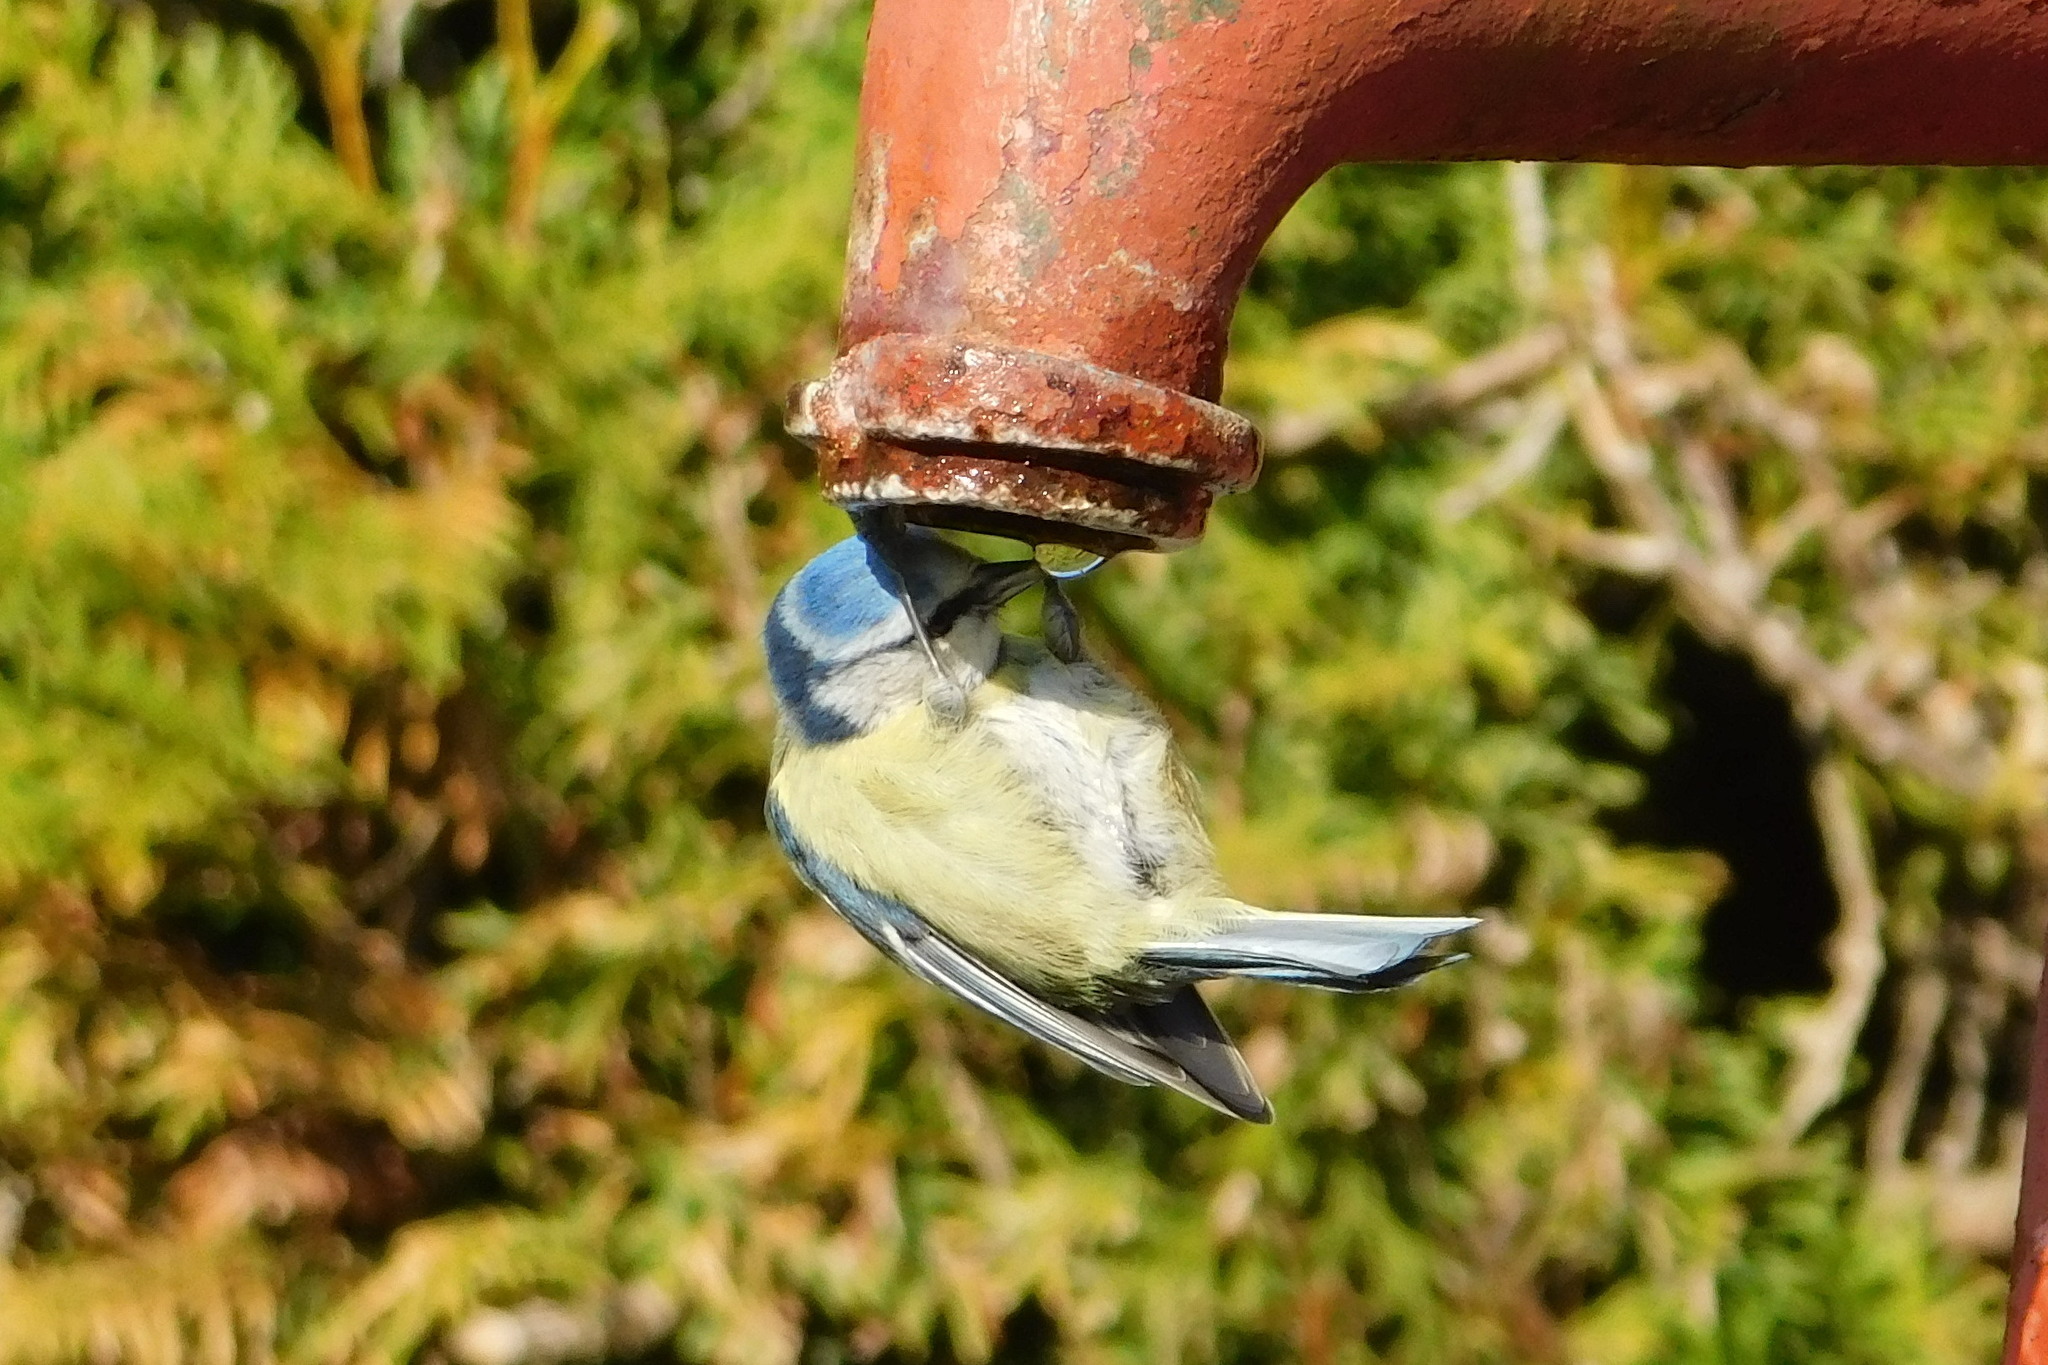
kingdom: Animalia
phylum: Chordata
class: Aves
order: Passeriformes
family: Paridae
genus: Cyanistes
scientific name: Cyanistes caeruleus
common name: Eurasian blue tit
